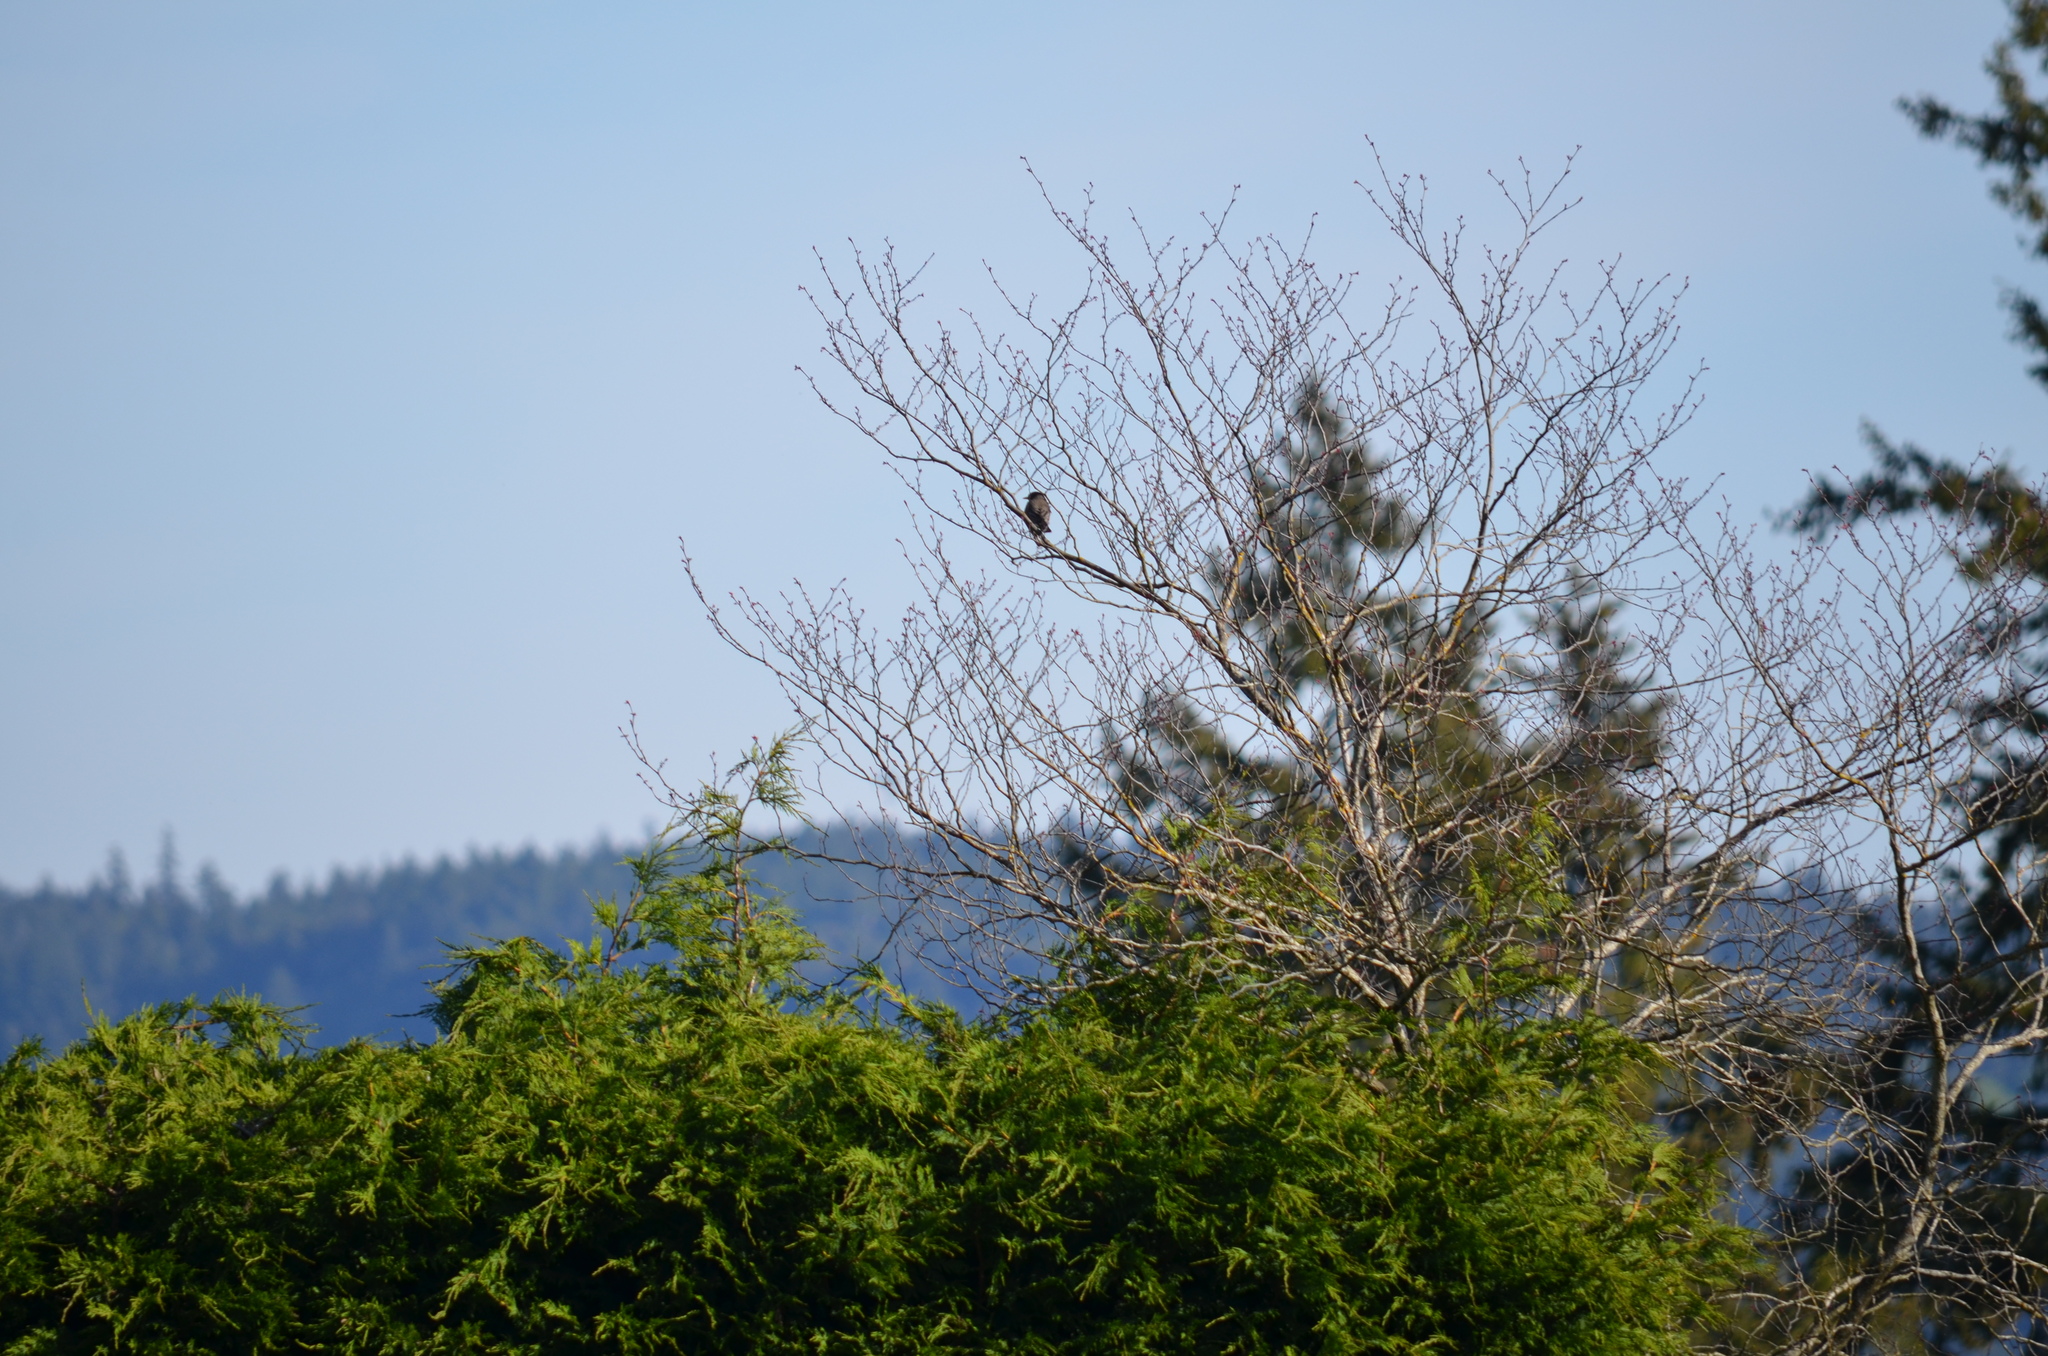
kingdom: Animalia
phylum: Chordata
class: Aves
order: Passeriformes
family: Turdidae
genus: Turdus
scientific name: Turdus migratorius
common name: American robin
